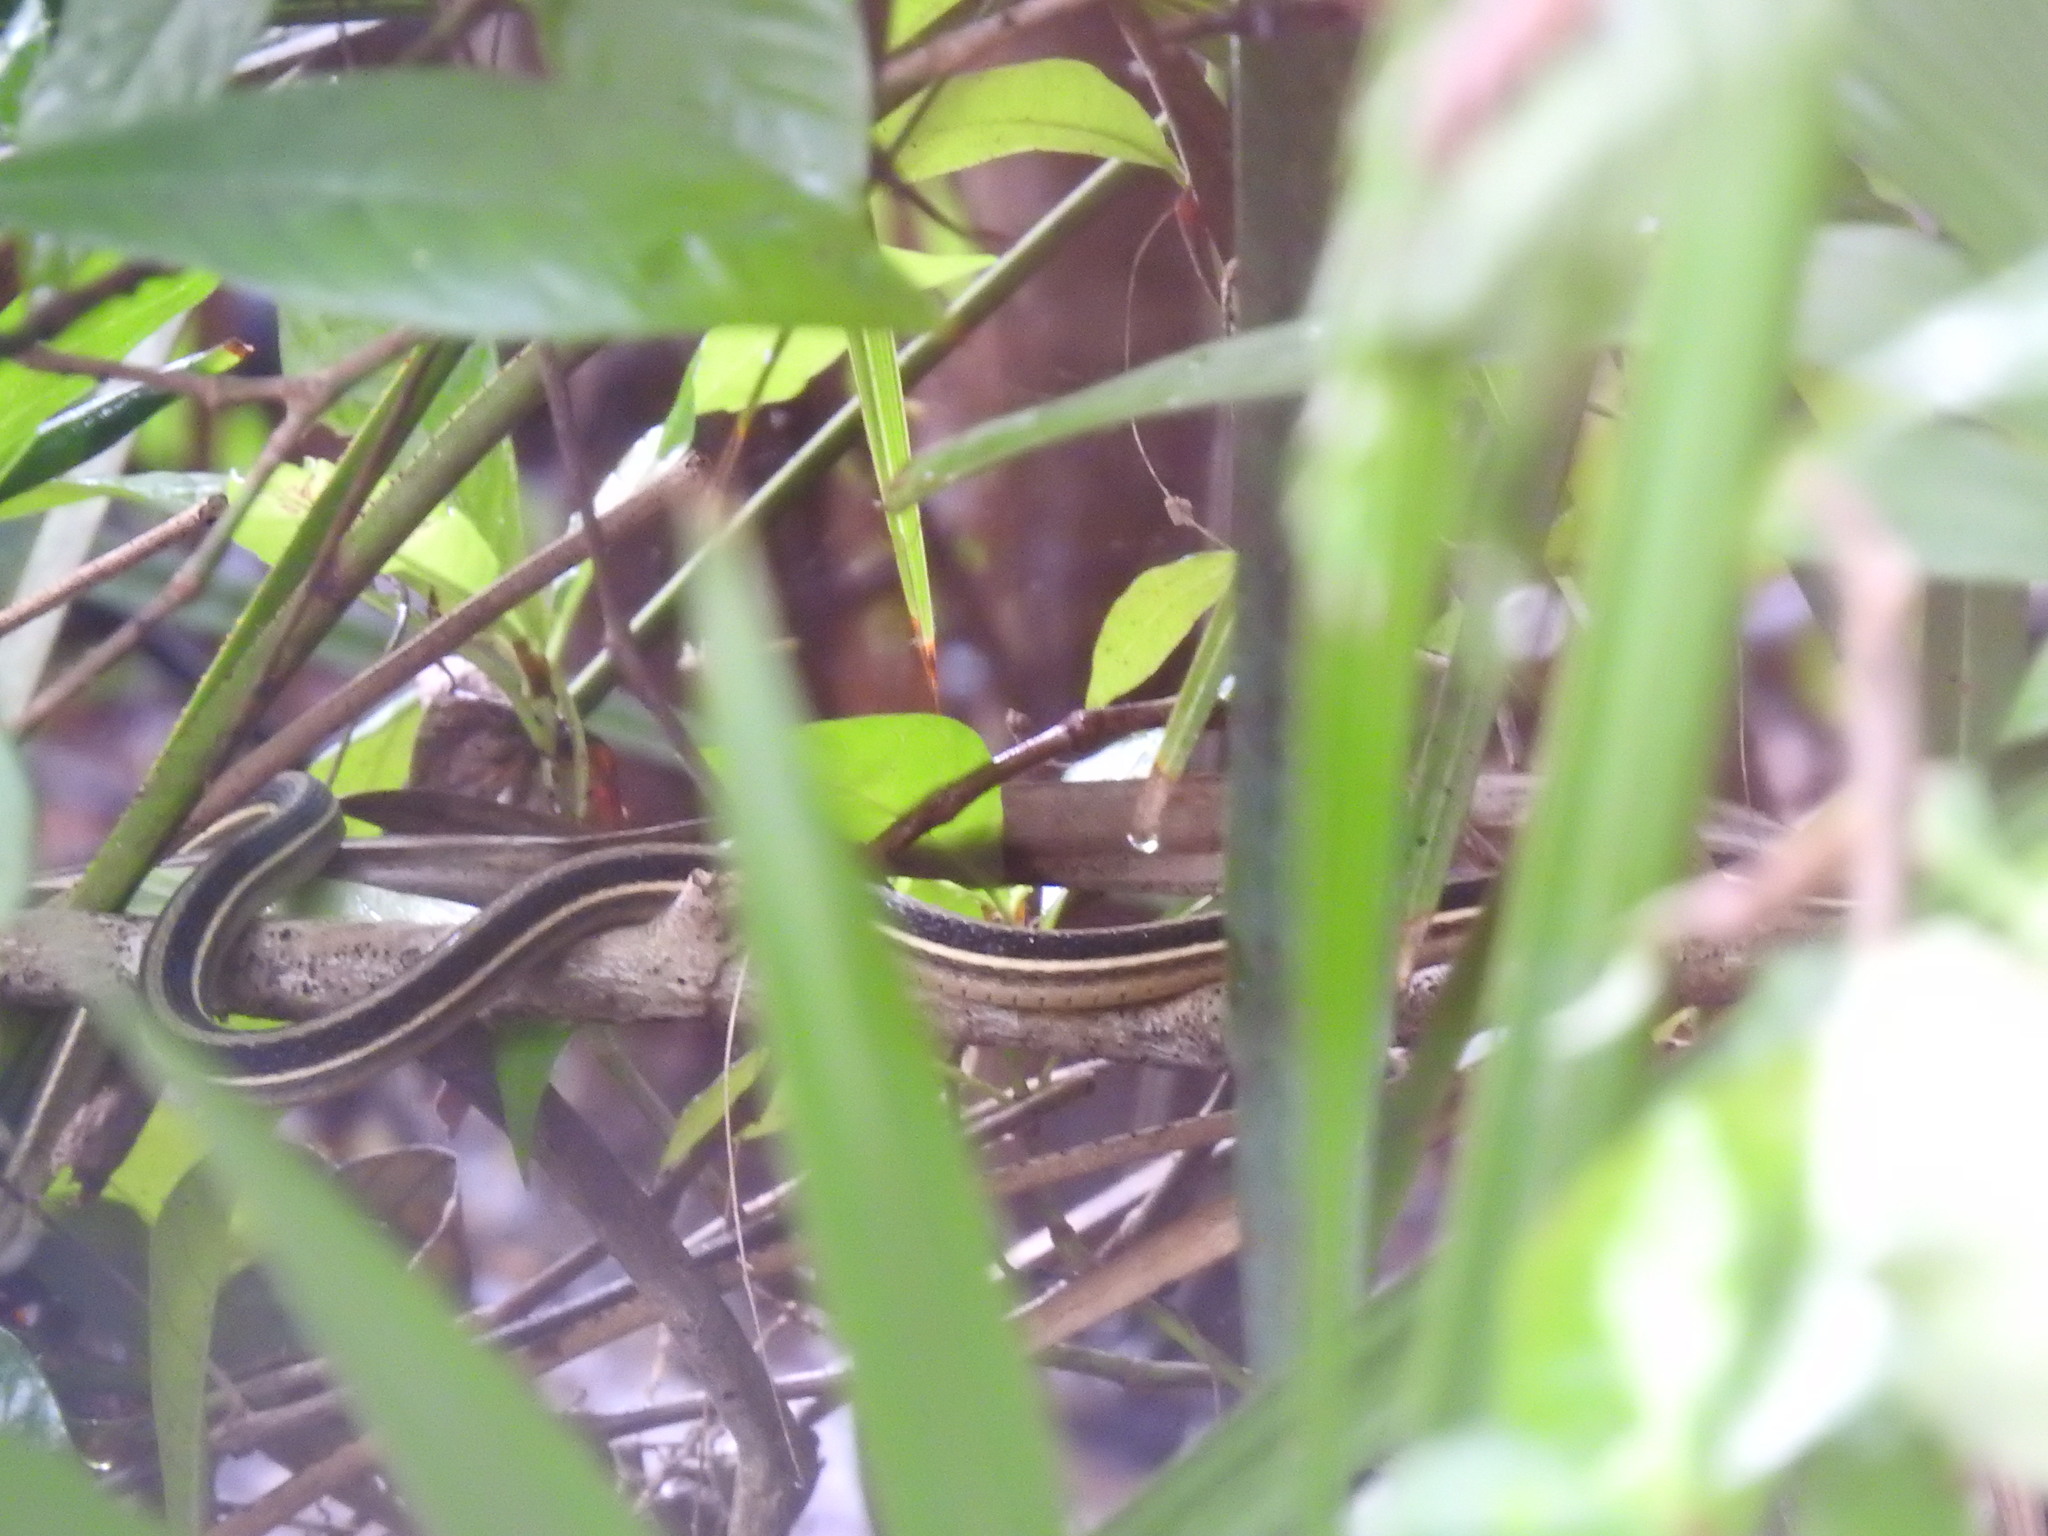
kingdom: Animalia
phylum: Chordata
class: Squamata
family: Colubridae
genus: Thamnophis
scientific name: Thamnophis saurita
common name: Eastern ribbonsnake
